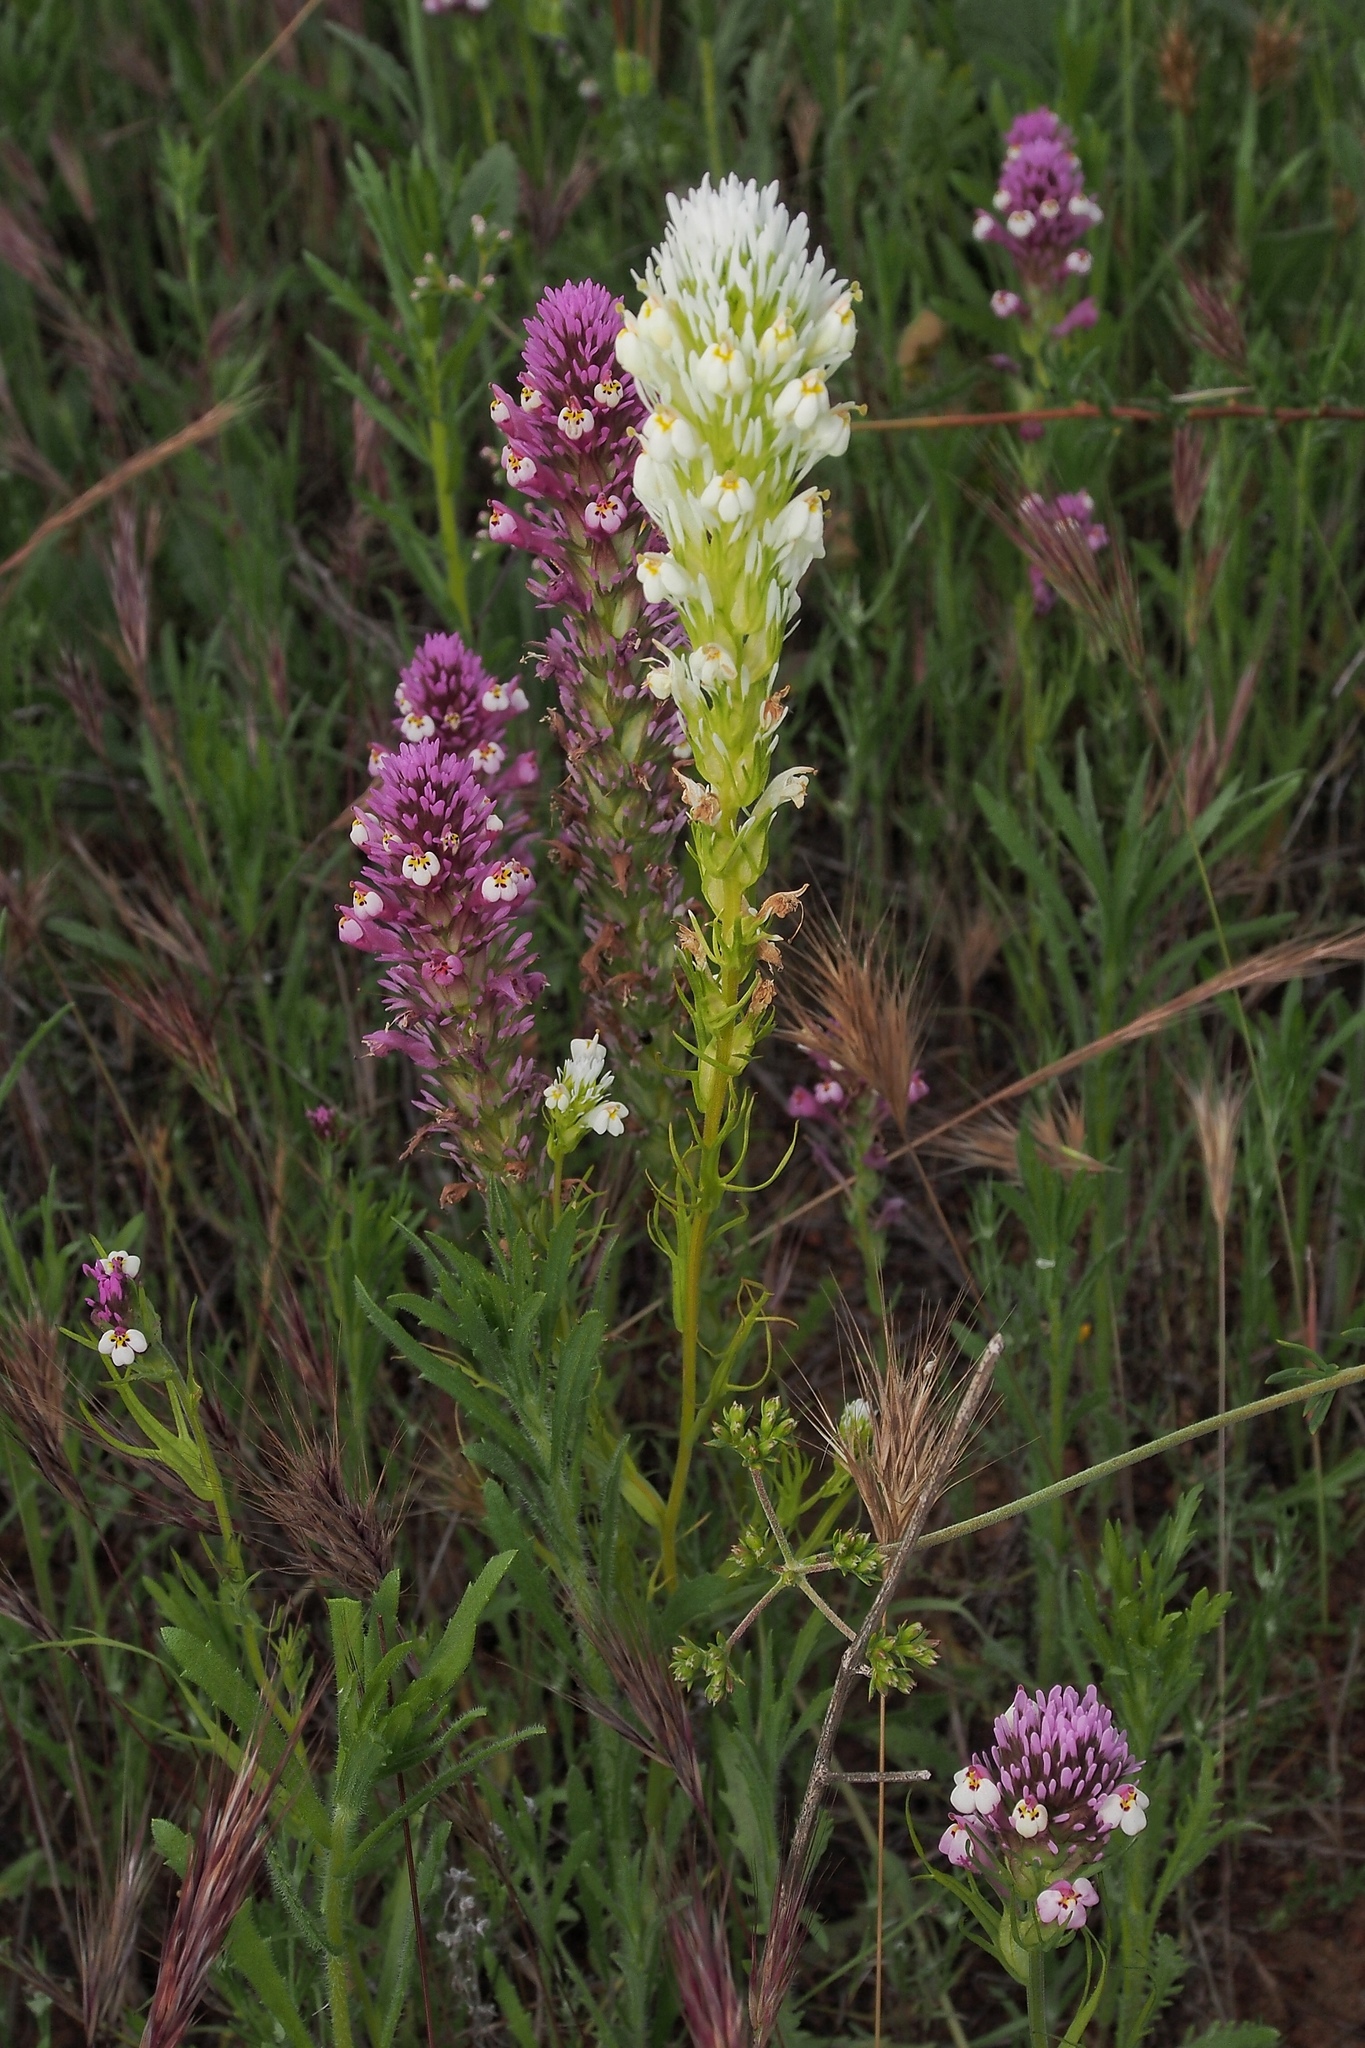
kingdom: Plantae
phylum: Tracheophyta
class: Magnoliopsida
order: Lamiales
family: Orobanchaceae
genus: Castilleja
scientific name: Castilleja densiflora
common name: Dense-flower indian paintbrush
